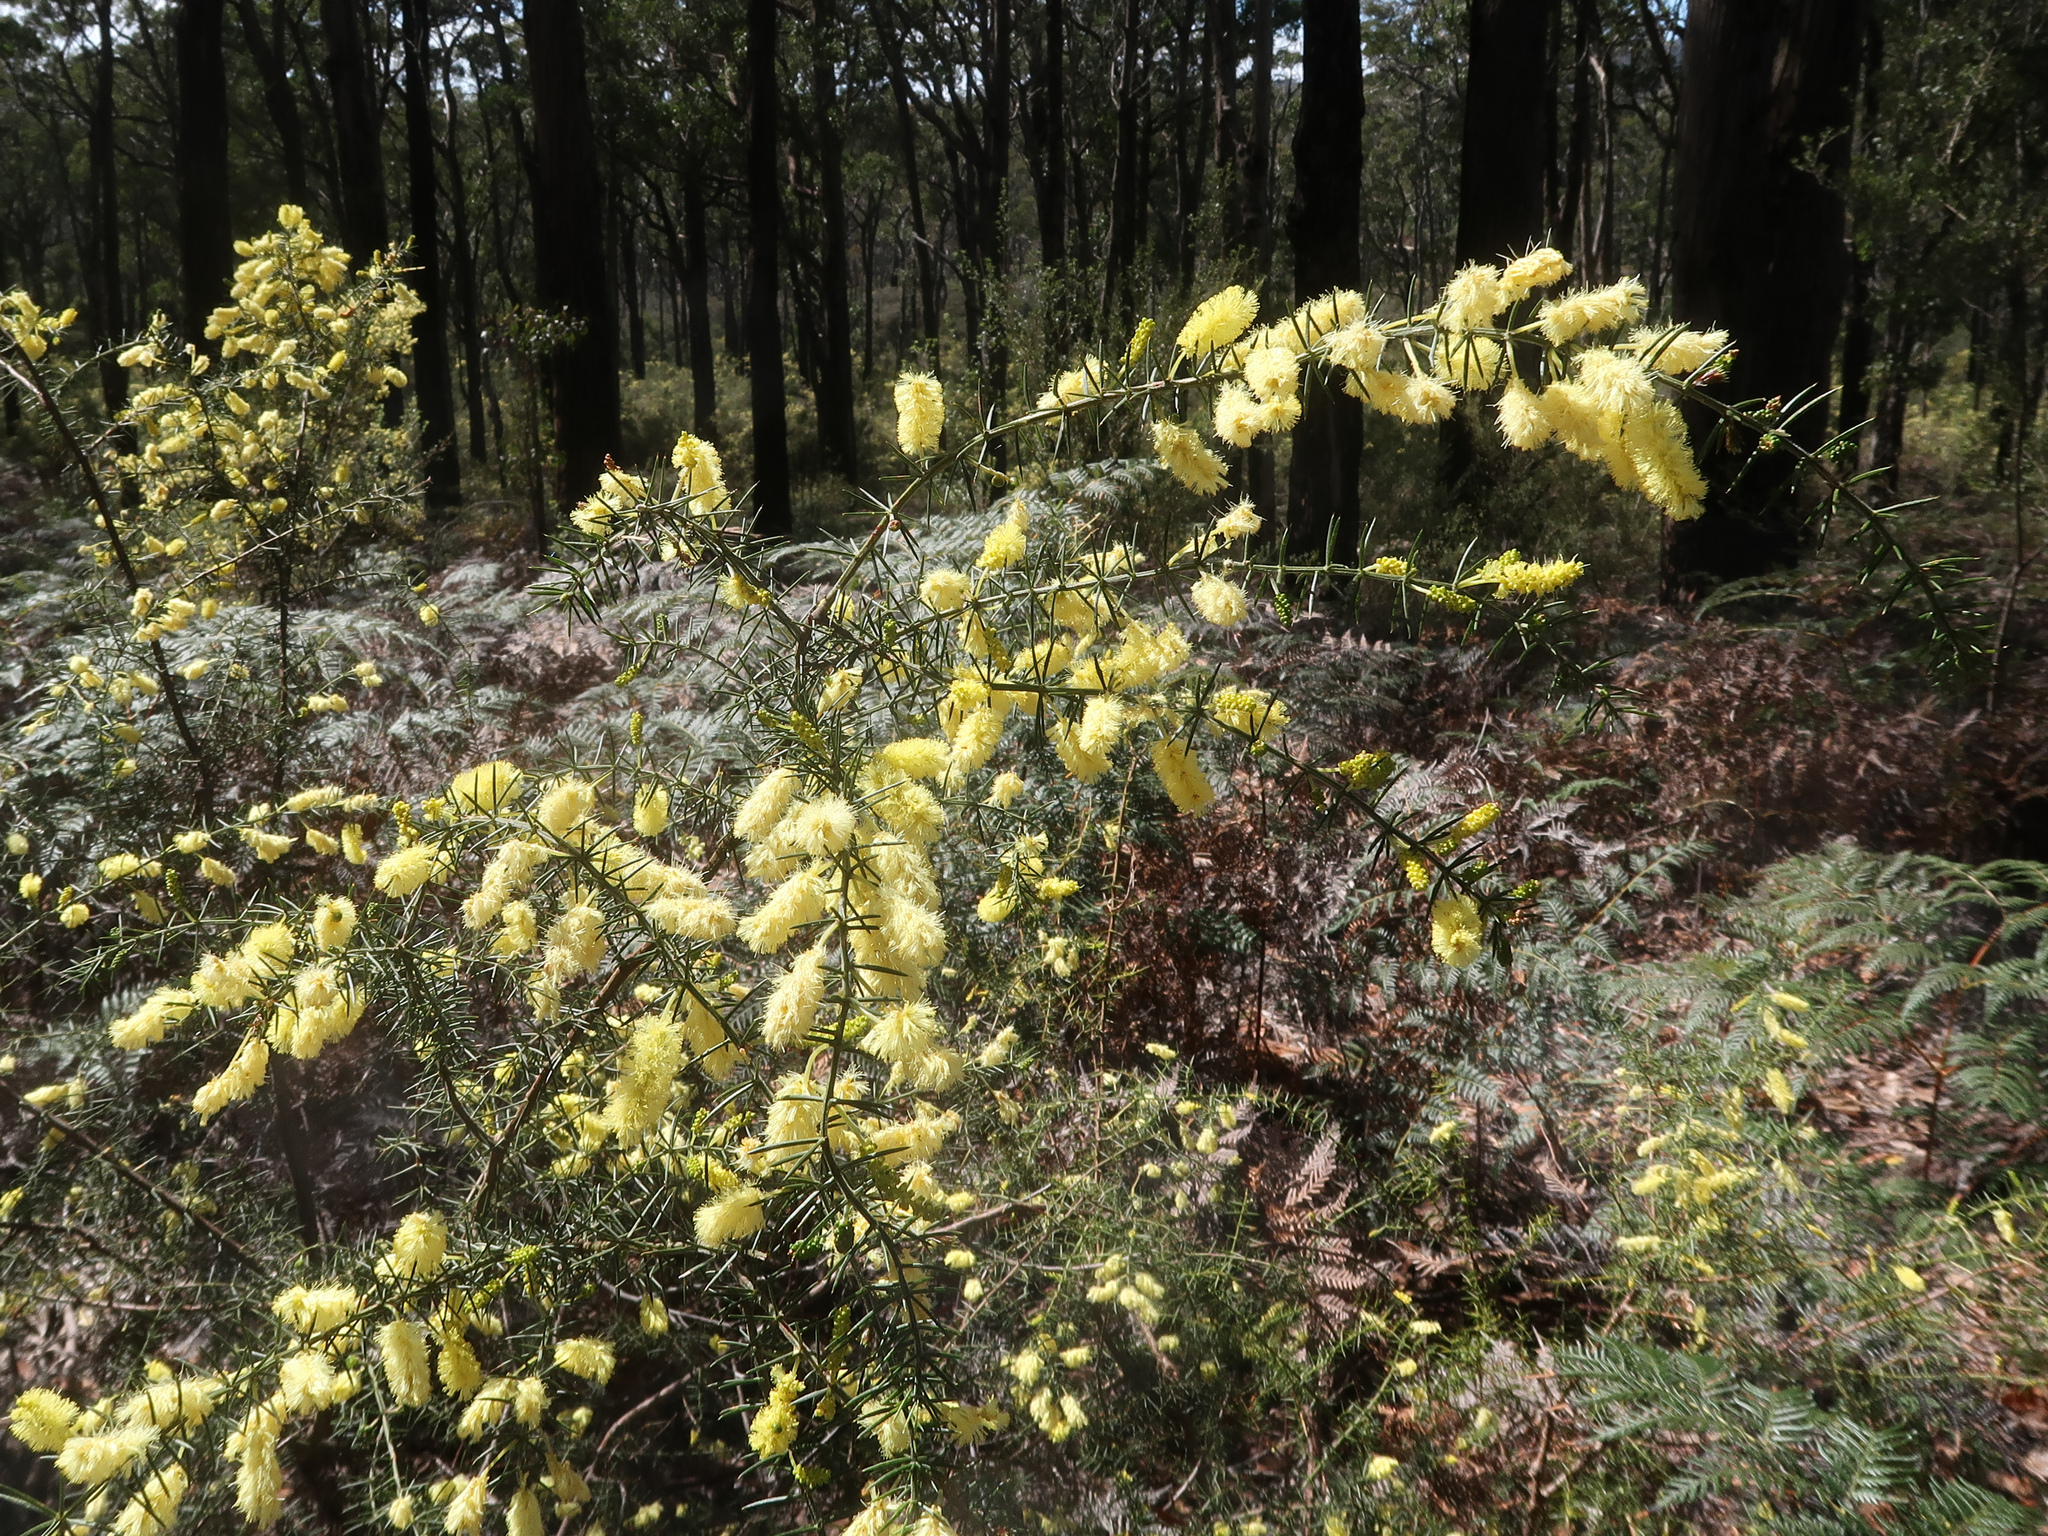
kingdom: Plantae
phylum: Tracheophyta
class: Magnoliopsida
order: Fabales
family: Fabaceae
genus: Acacia
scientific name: Acacia verticillata
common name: Prickly moses
